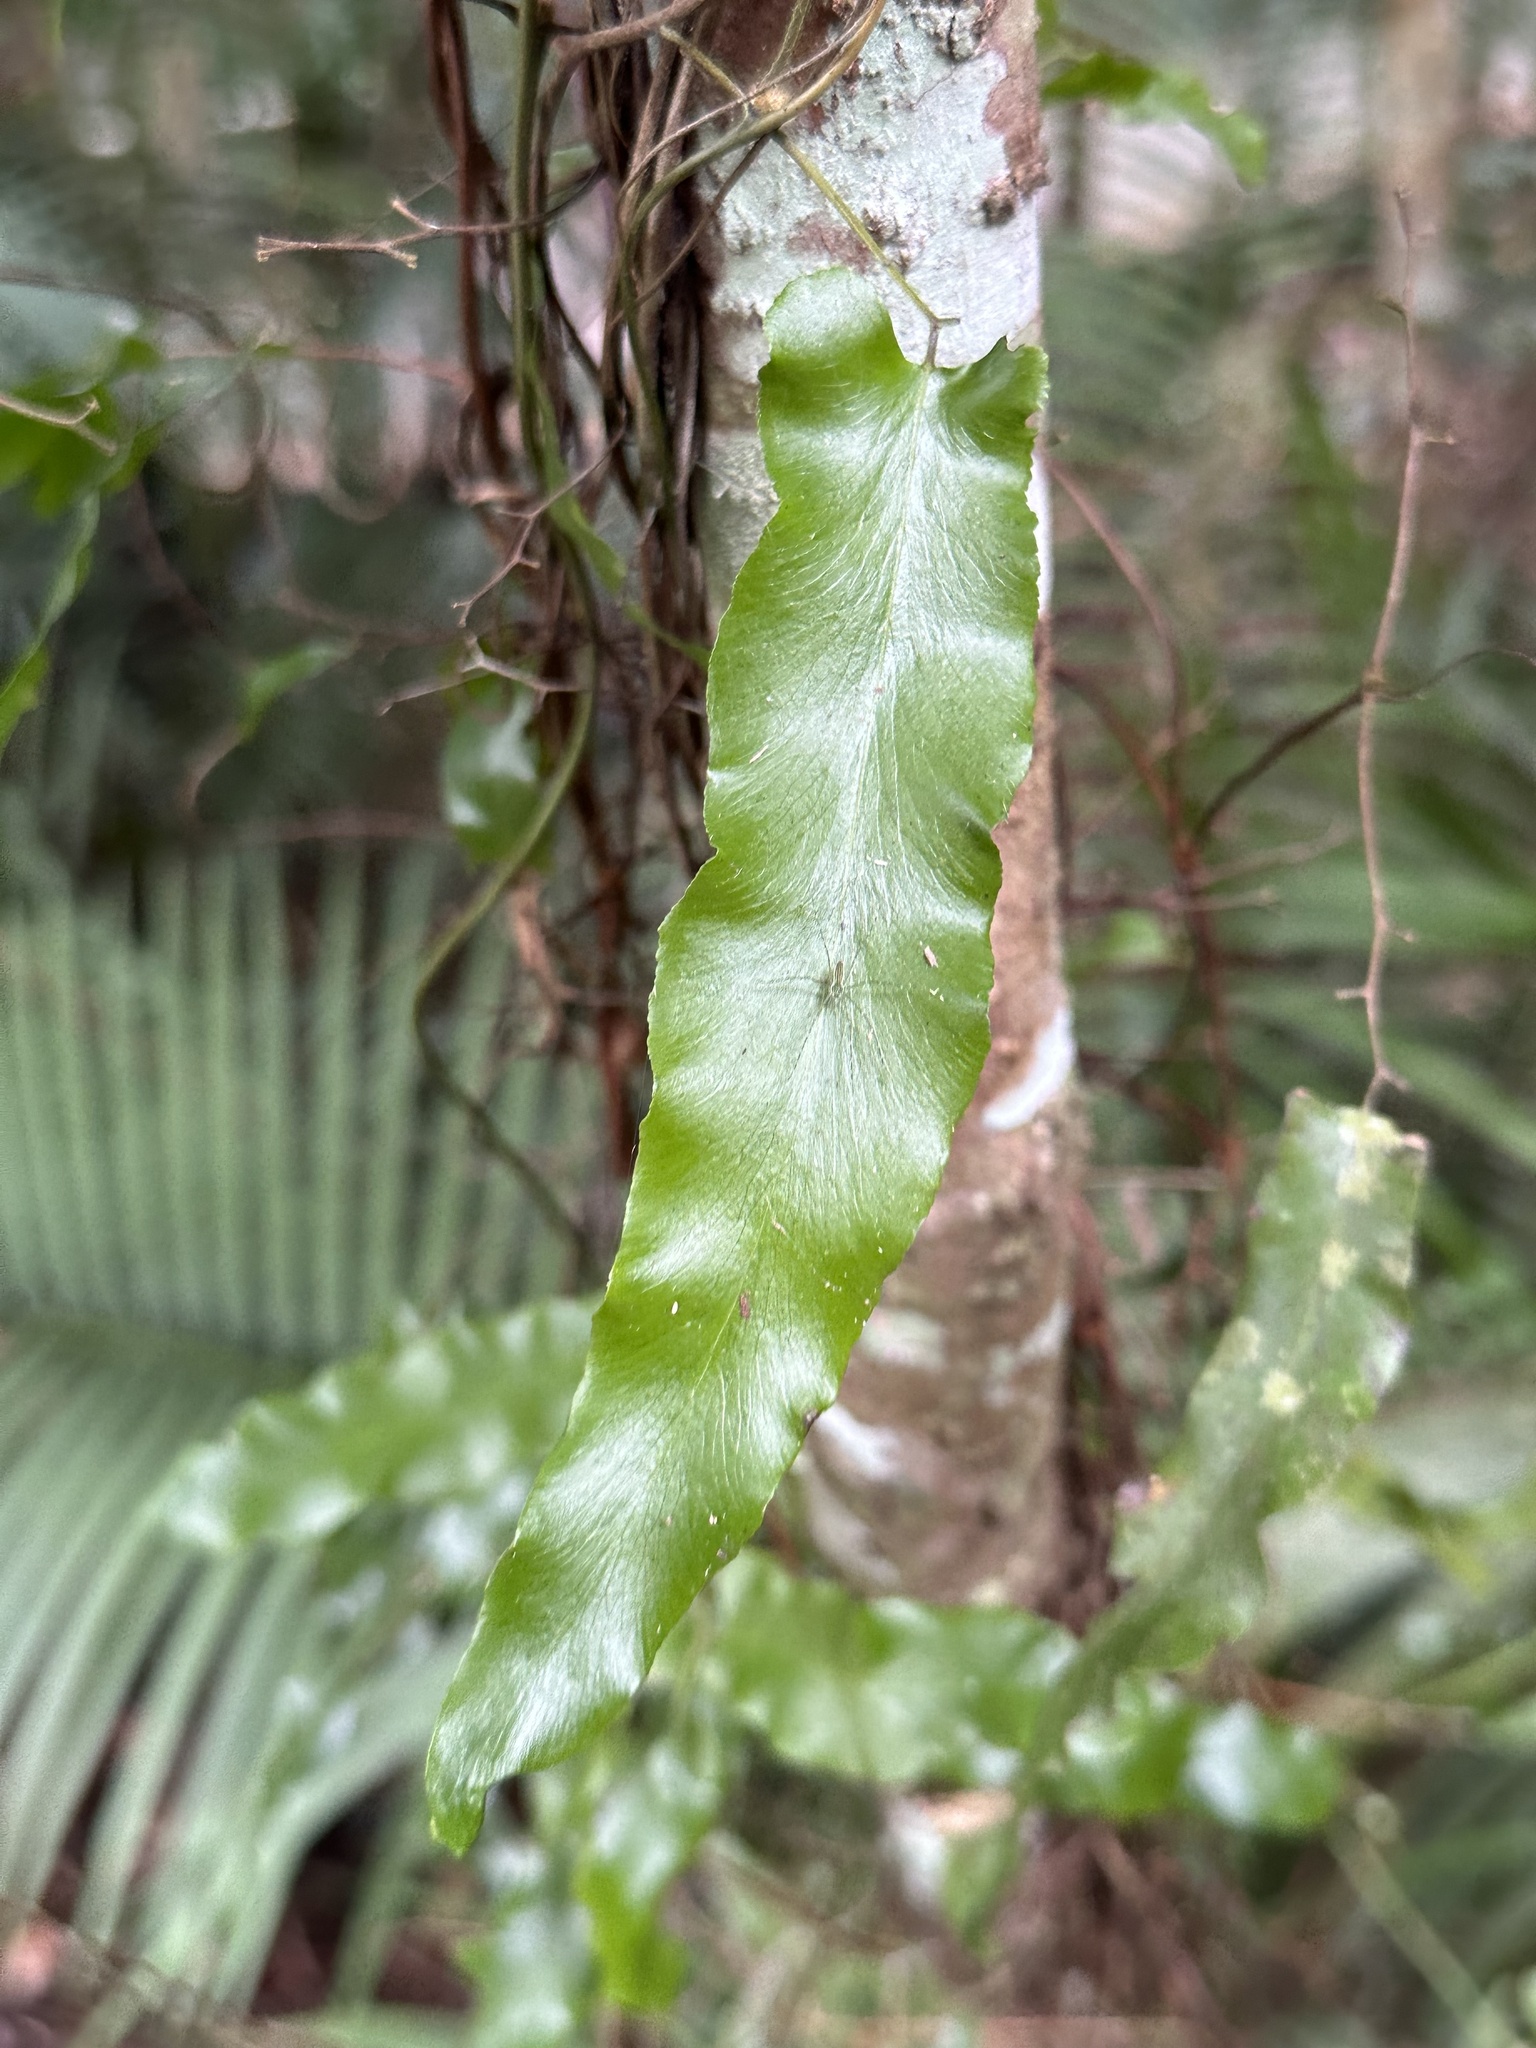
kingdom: Plantae
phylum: Tracheophyta
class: Polypodiopsida
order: Schizaeales
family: Lygodiaceae
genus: Lygodium
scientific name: Lygodium reticulatum
